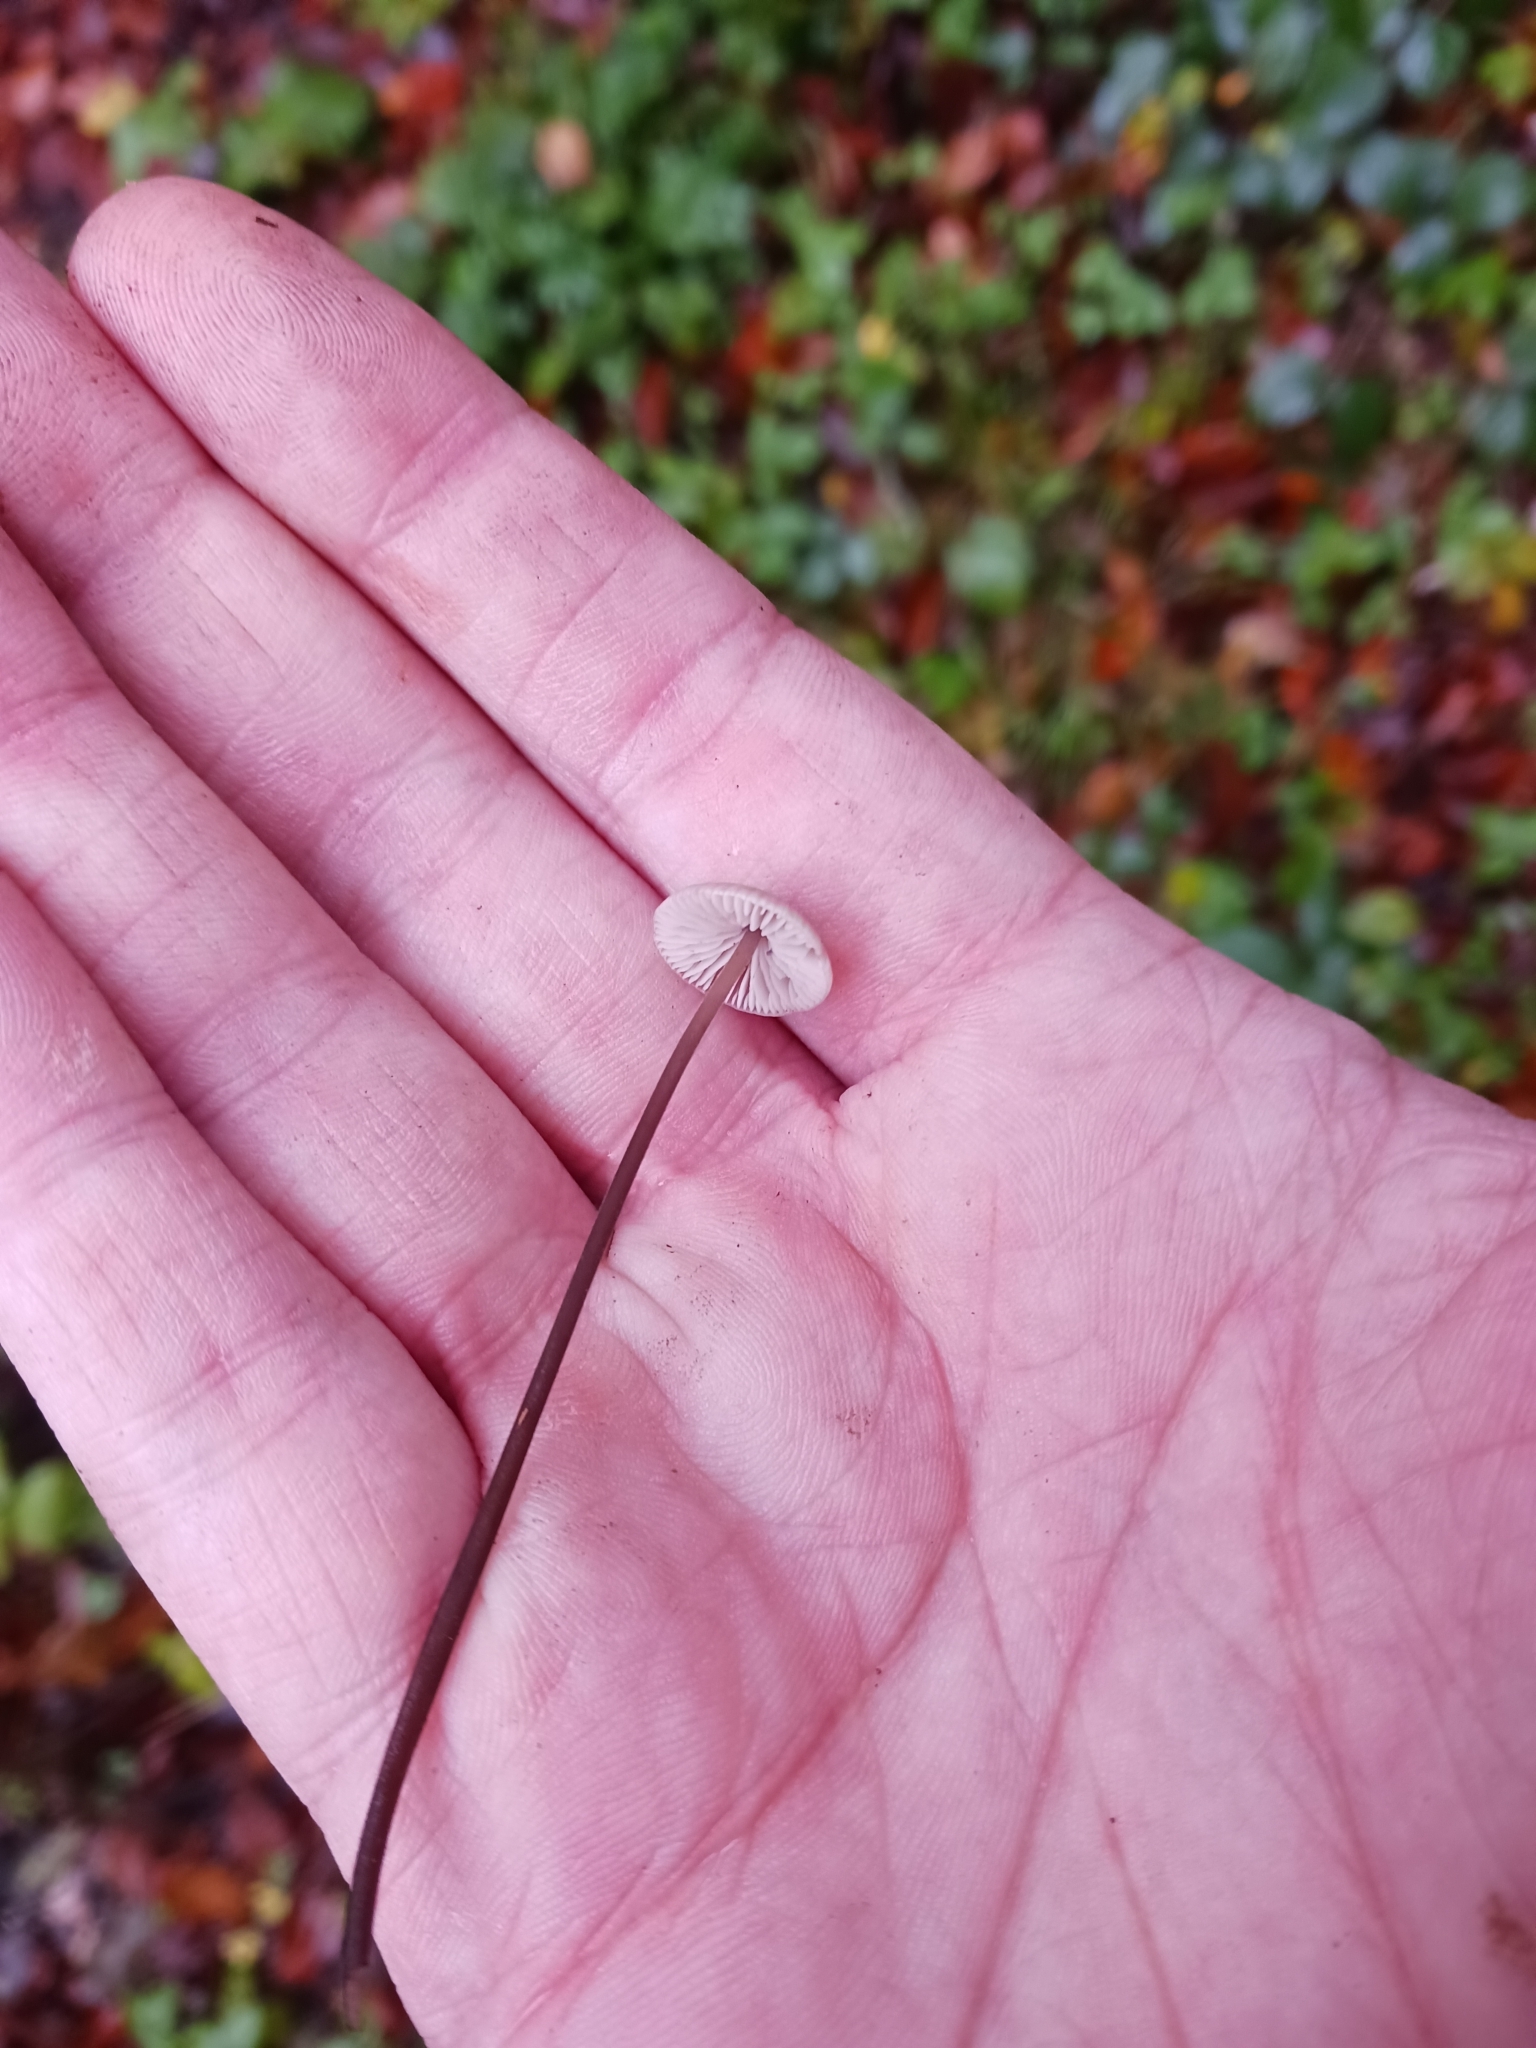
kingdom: Fungi
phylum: Basidiomycota
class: Agaricomycetes
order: Agaricales
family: Omphalotaceae
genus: Mycetinis
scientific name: Mycetinis alliaceus
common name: Garlic parachute
